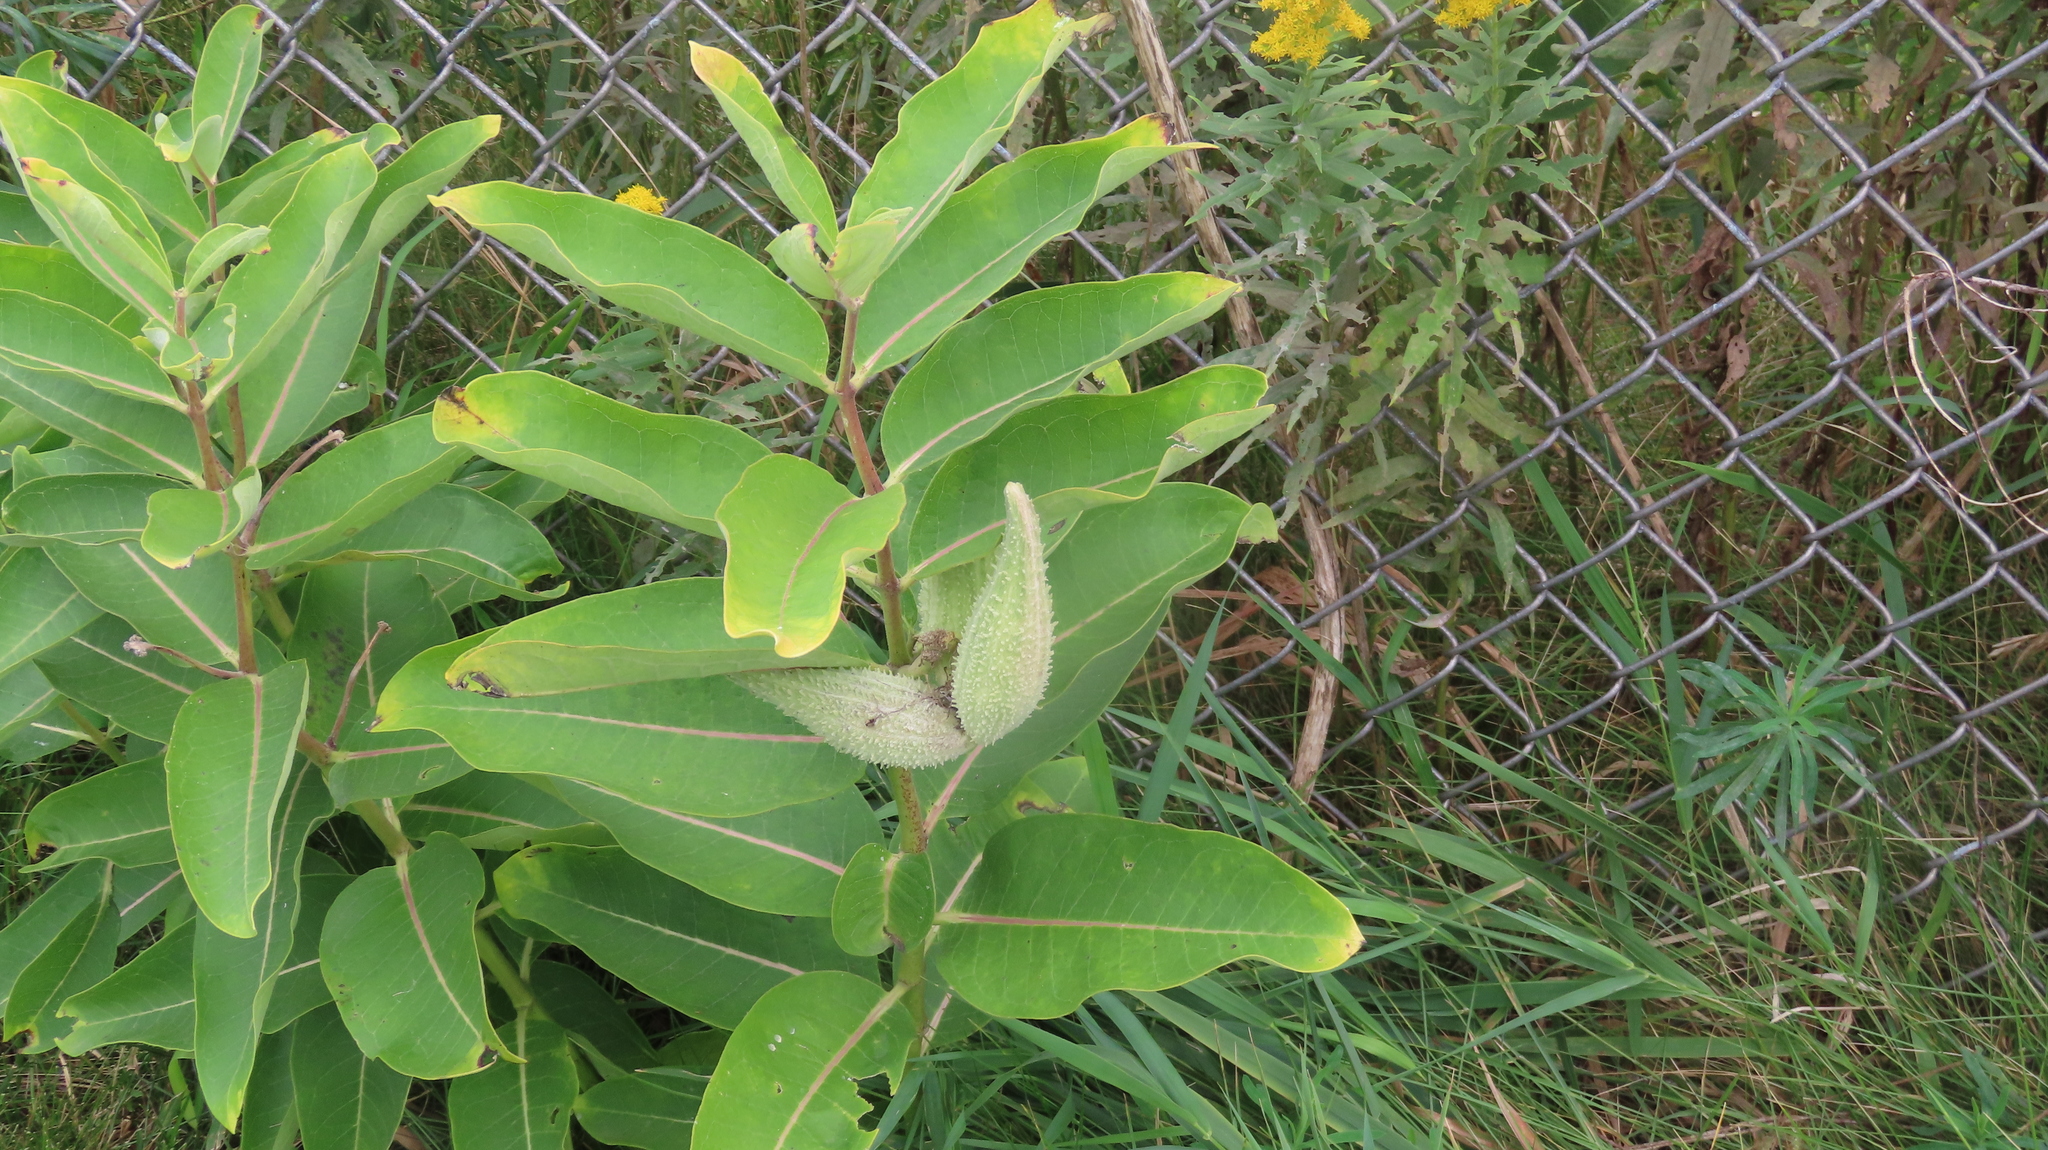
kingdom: Plantae
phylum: Tracheophyta
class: Magnoliopsida
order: Gentianales
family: Apocynaceae
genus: Asclepias
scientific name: Asclepias syriaca
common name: Common milkweed
